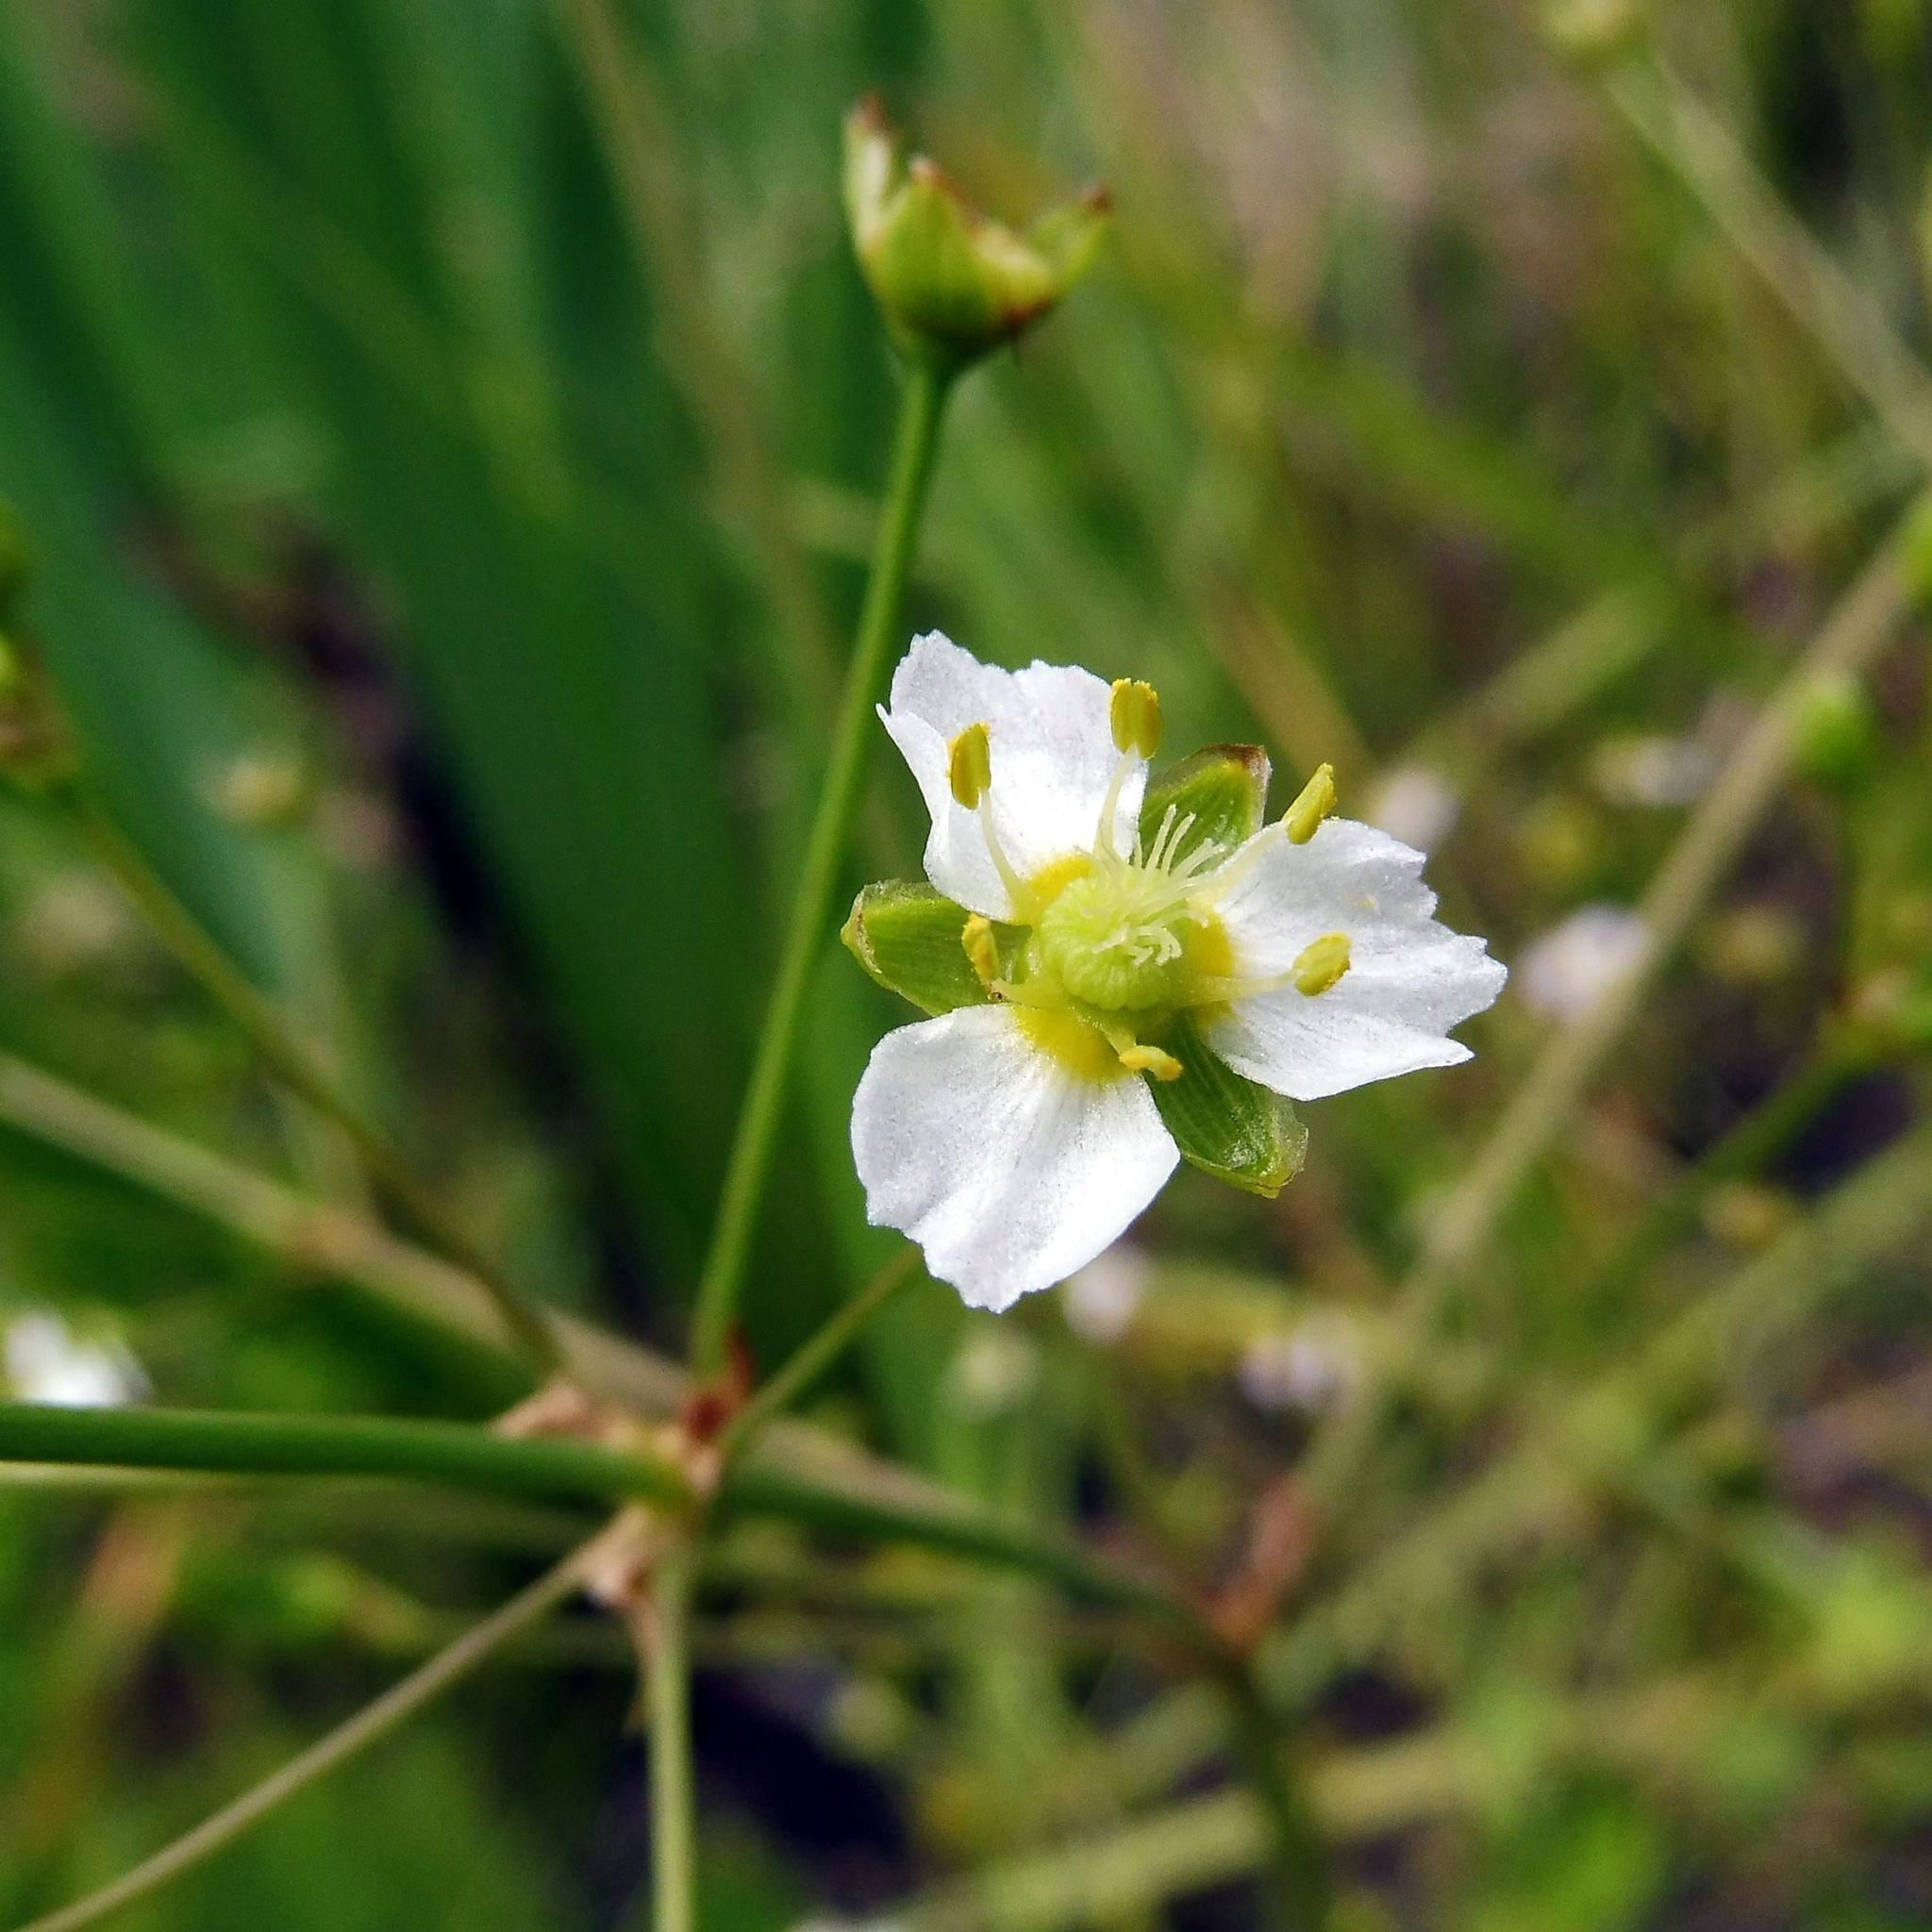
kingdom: Plantae
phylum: Tracheophyta
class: Liliopsida
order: Alismatales
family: Alismataceae
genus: Alisma
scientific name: Alisma plantago-aquatica
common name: Water-plantain
